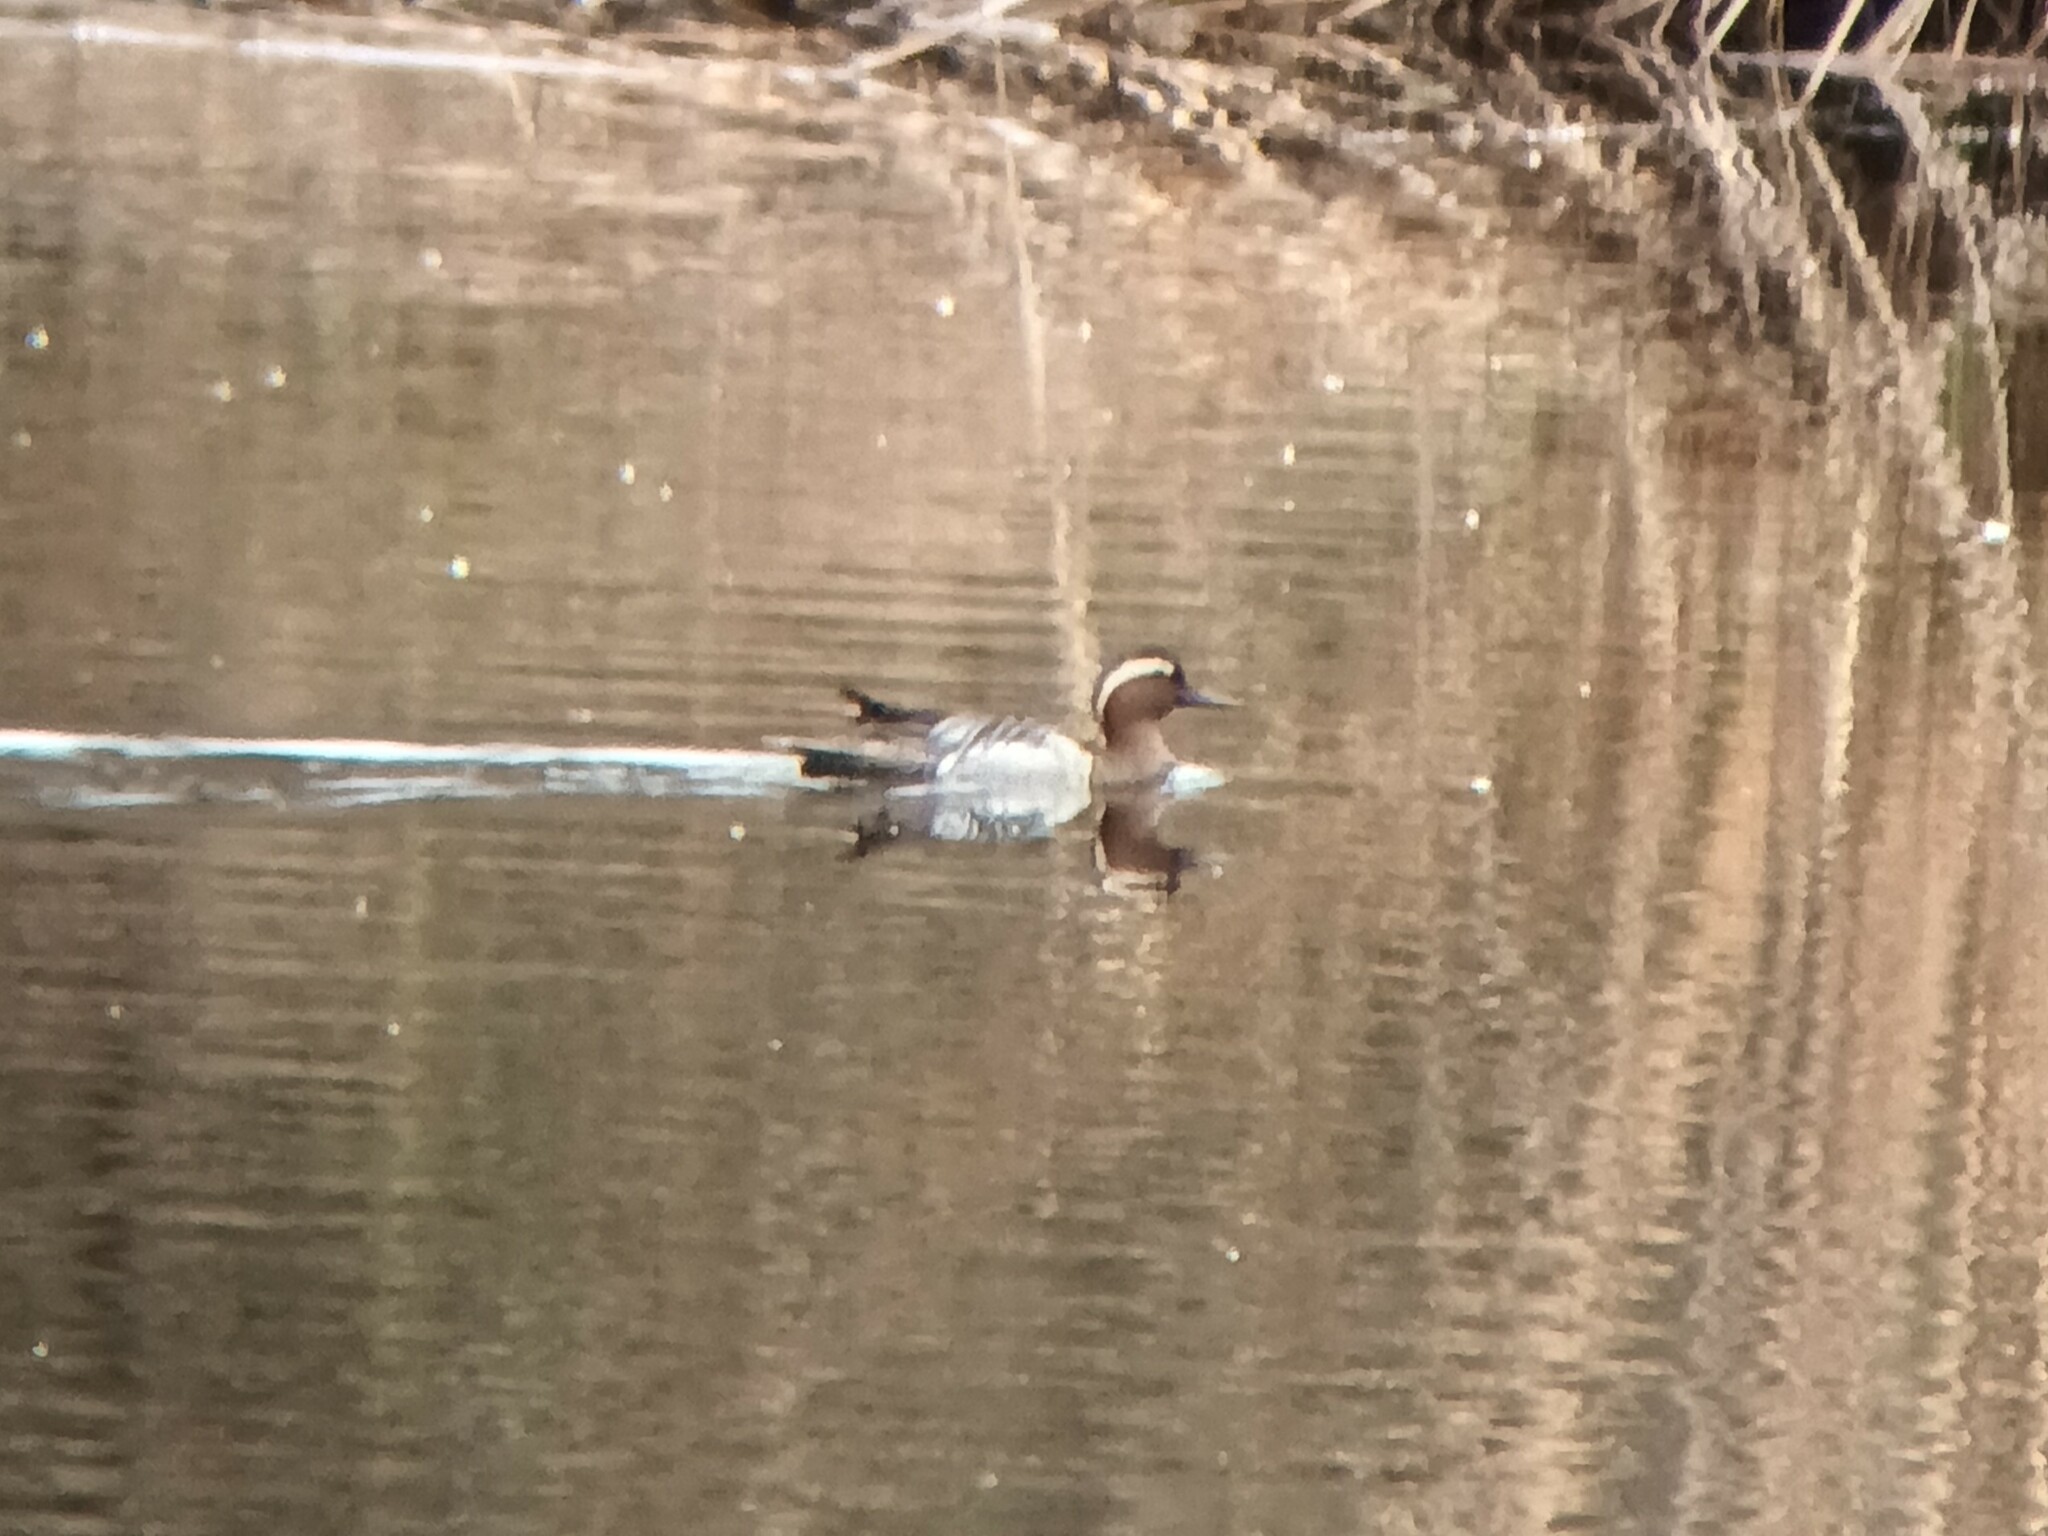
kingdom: Animalia
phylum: Chordata
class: Aves
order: Anseriformes
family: Anatidae
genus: Spatula
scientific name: Spatula querquedula
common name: Garganey
